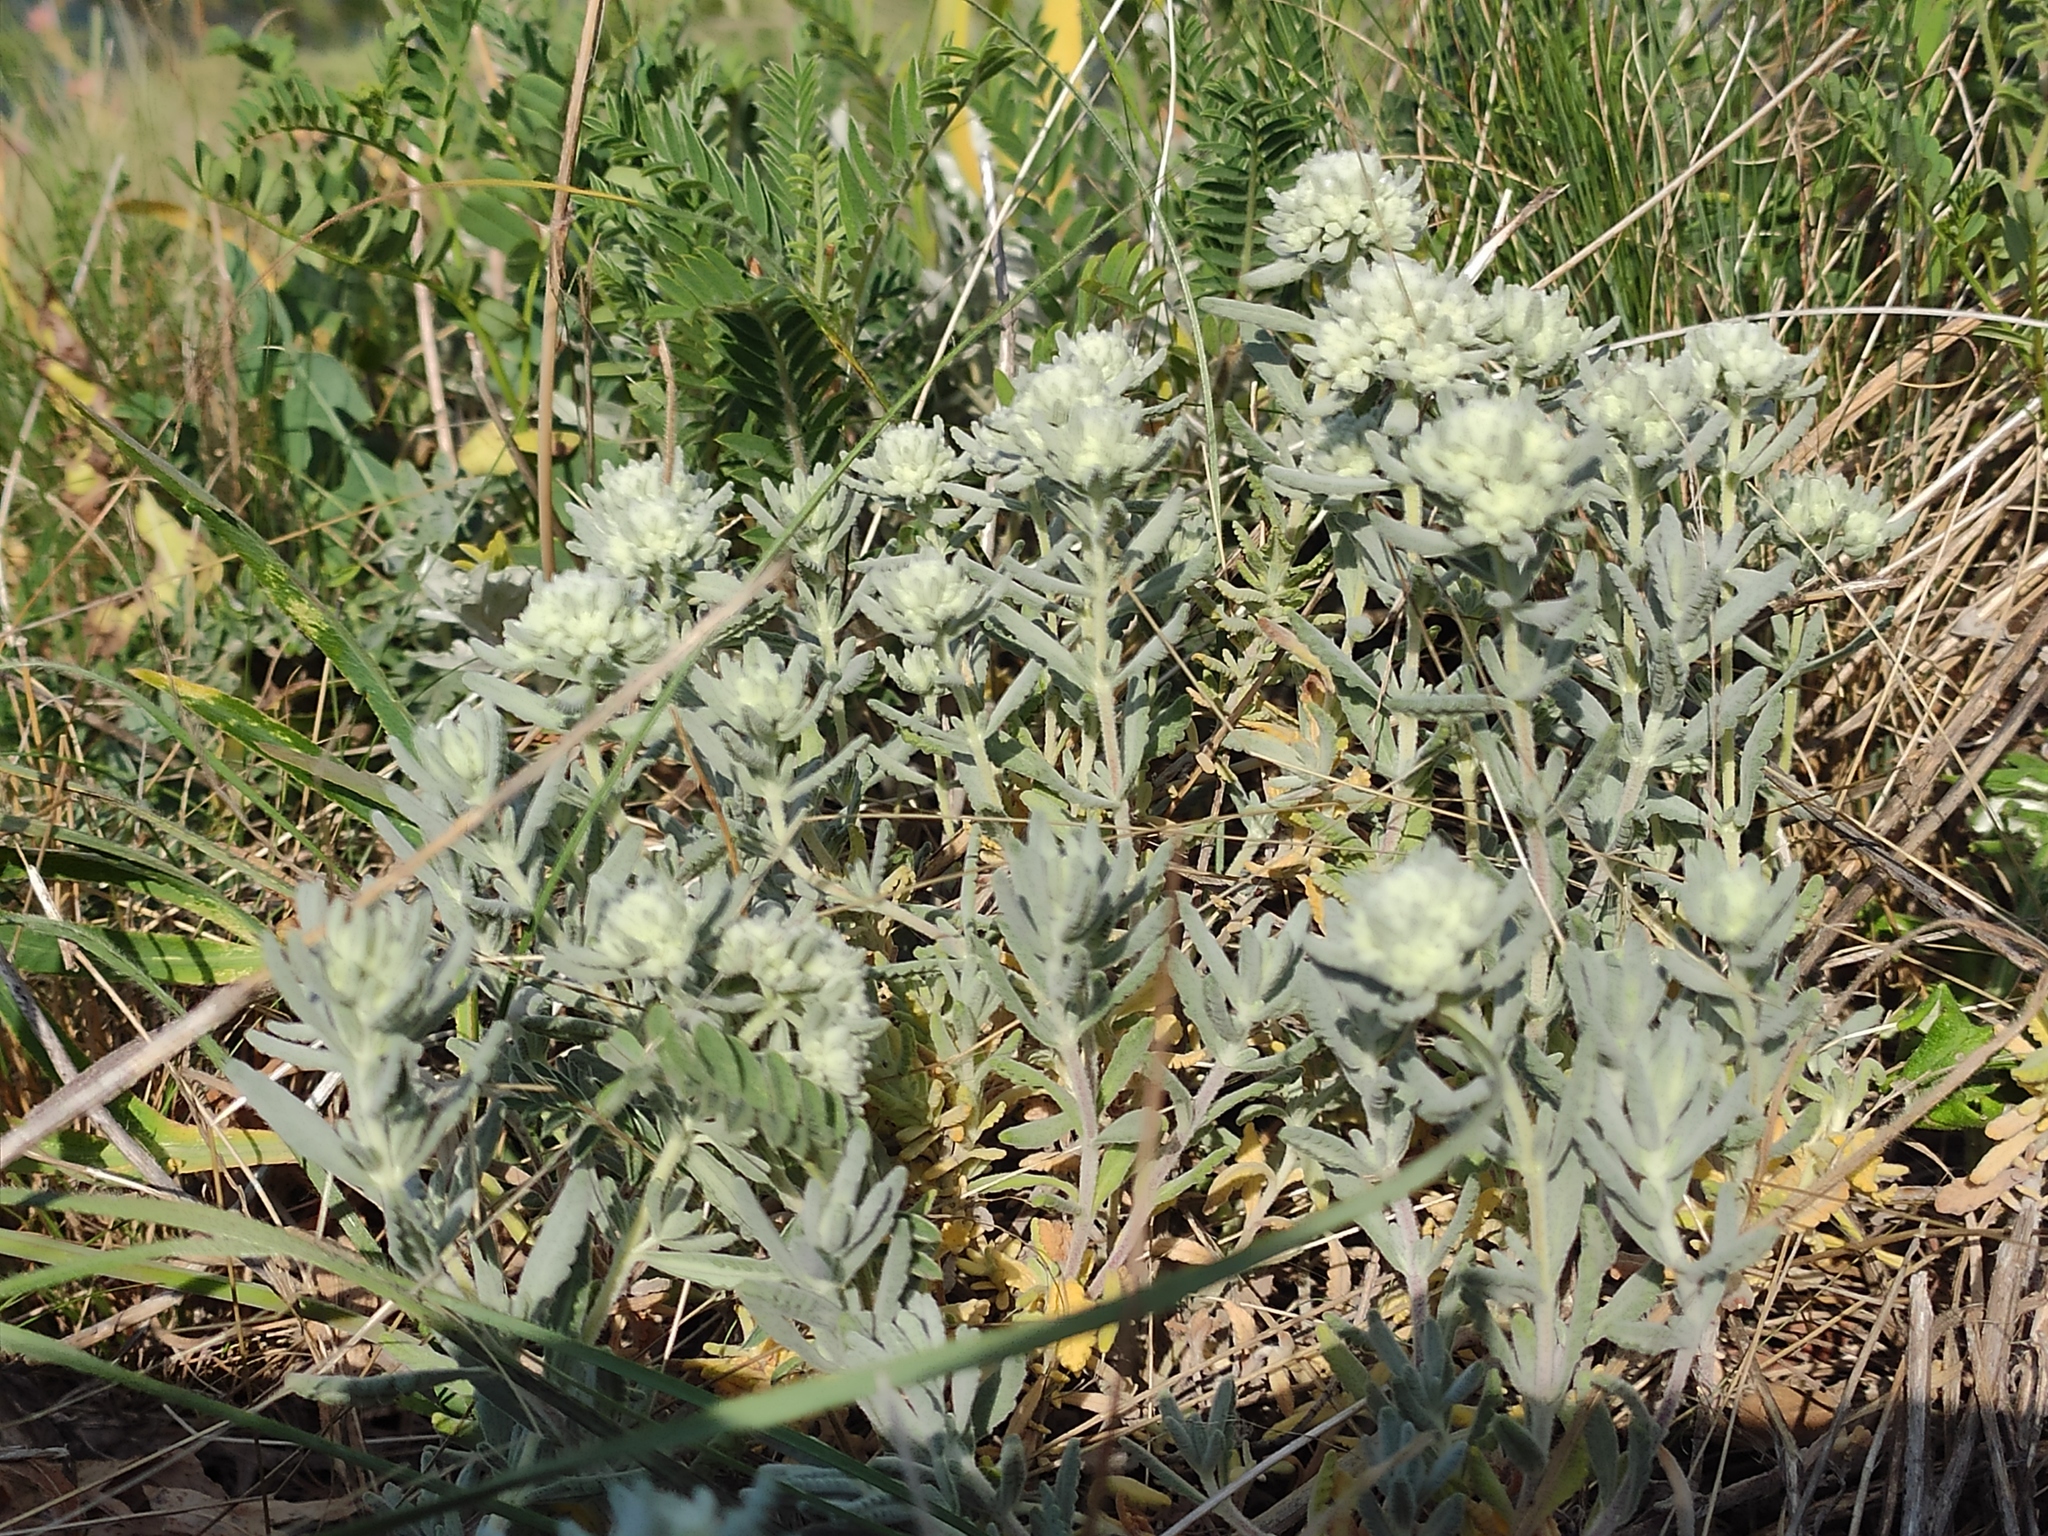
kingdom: Plantae
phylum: Tracheophyta
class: Magnoliopsida
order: Lamiales
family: Lamiaceae
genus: Teucrium
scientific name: Teucrium polium
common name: Poley
